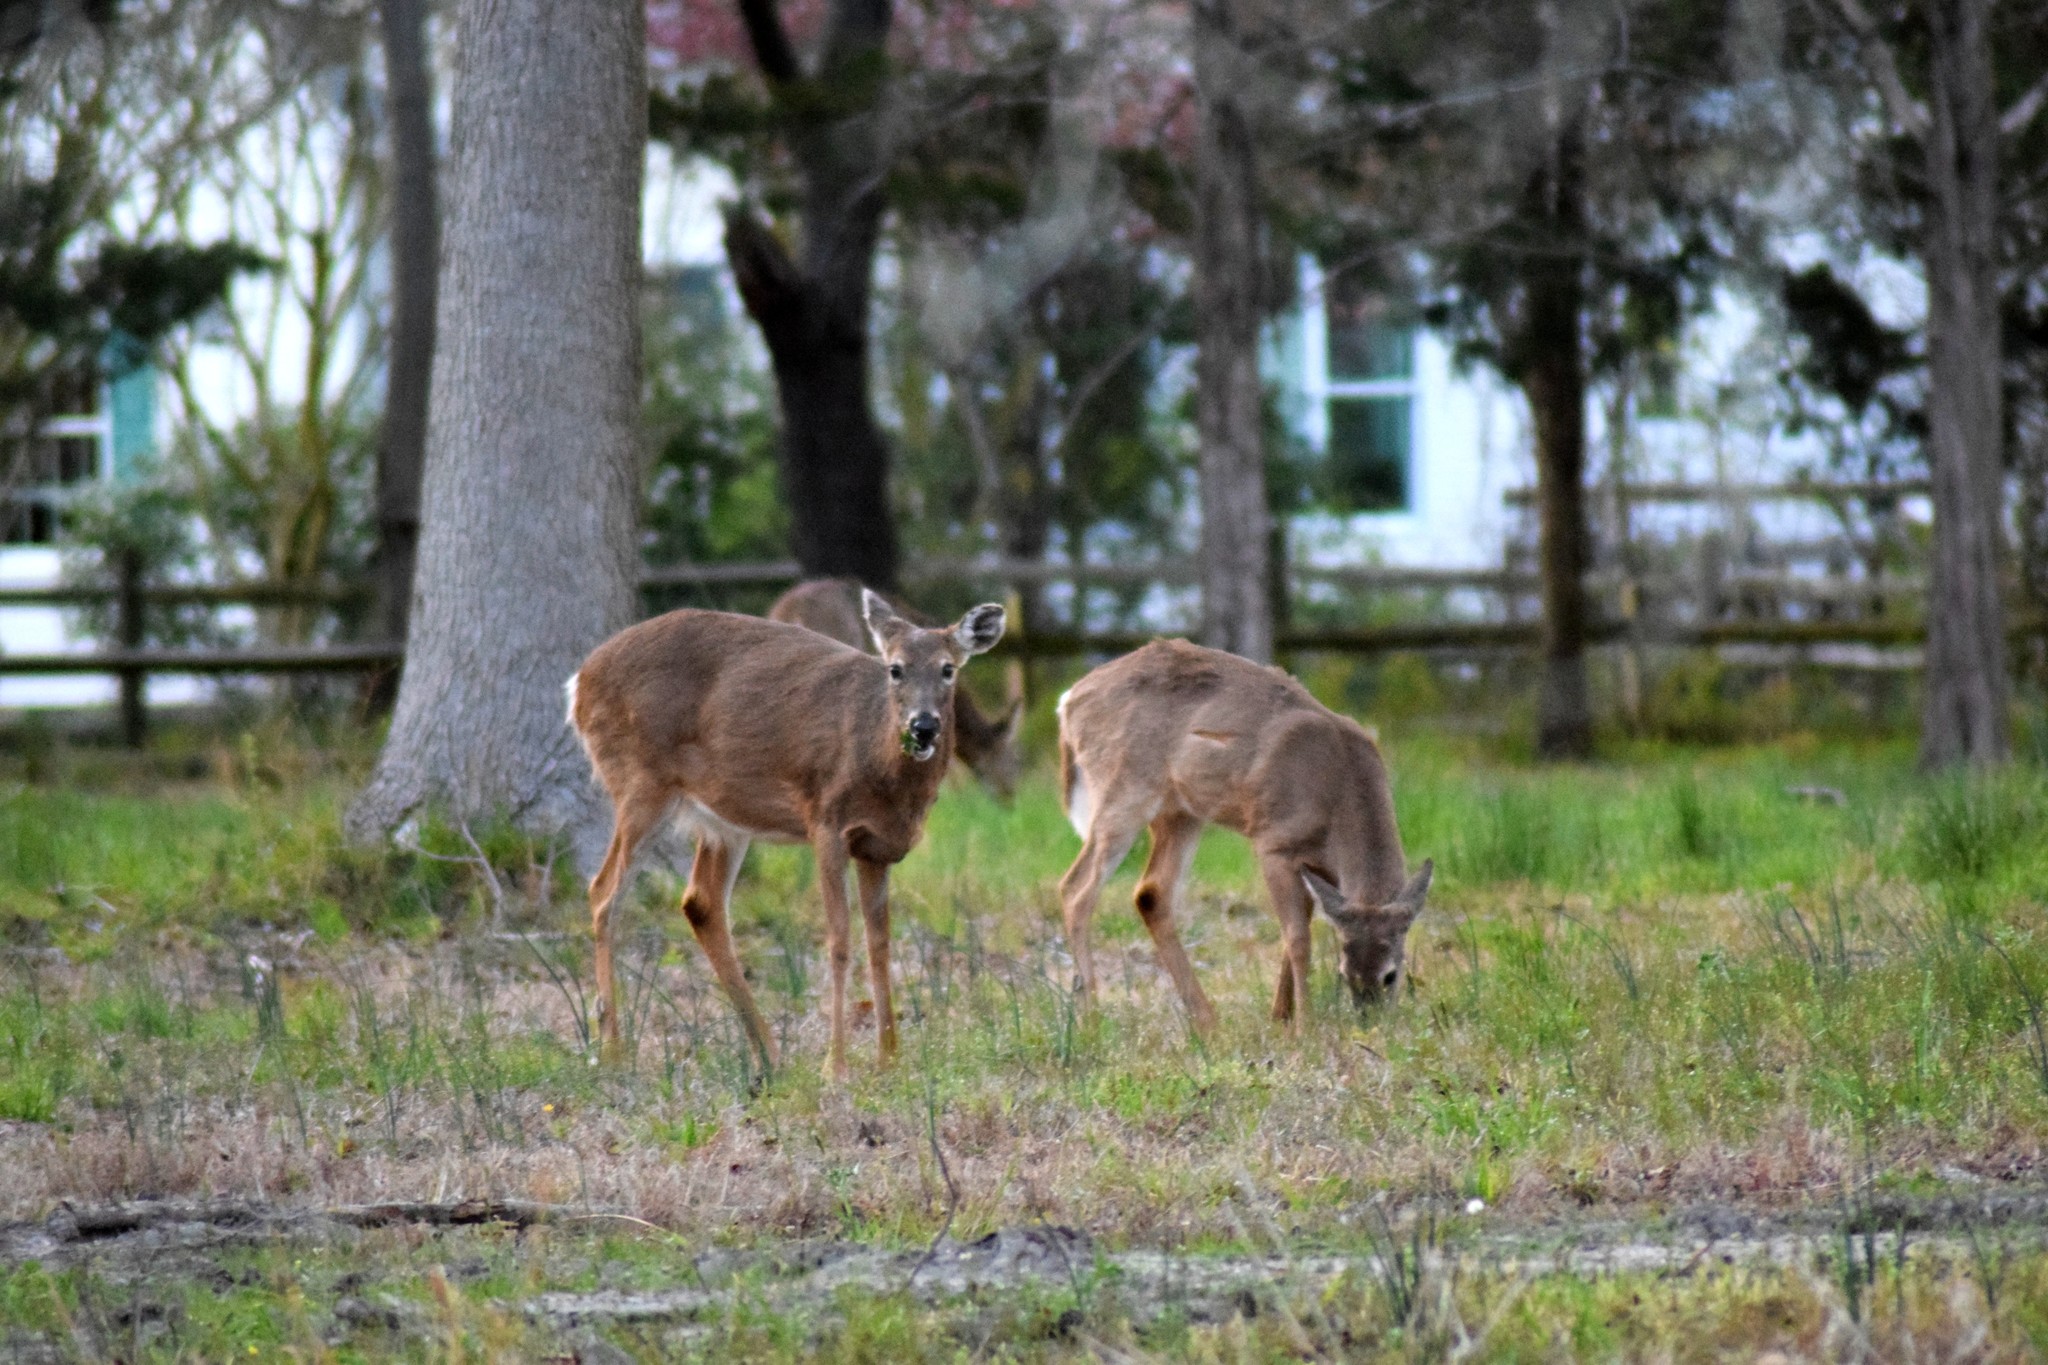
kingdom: Animalia
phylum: Chordata
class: Mammalia
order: Artiodactyla
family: Cervidae
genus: Odocoileus
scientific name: Odocoileus virginianus
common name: White-tailed deer
